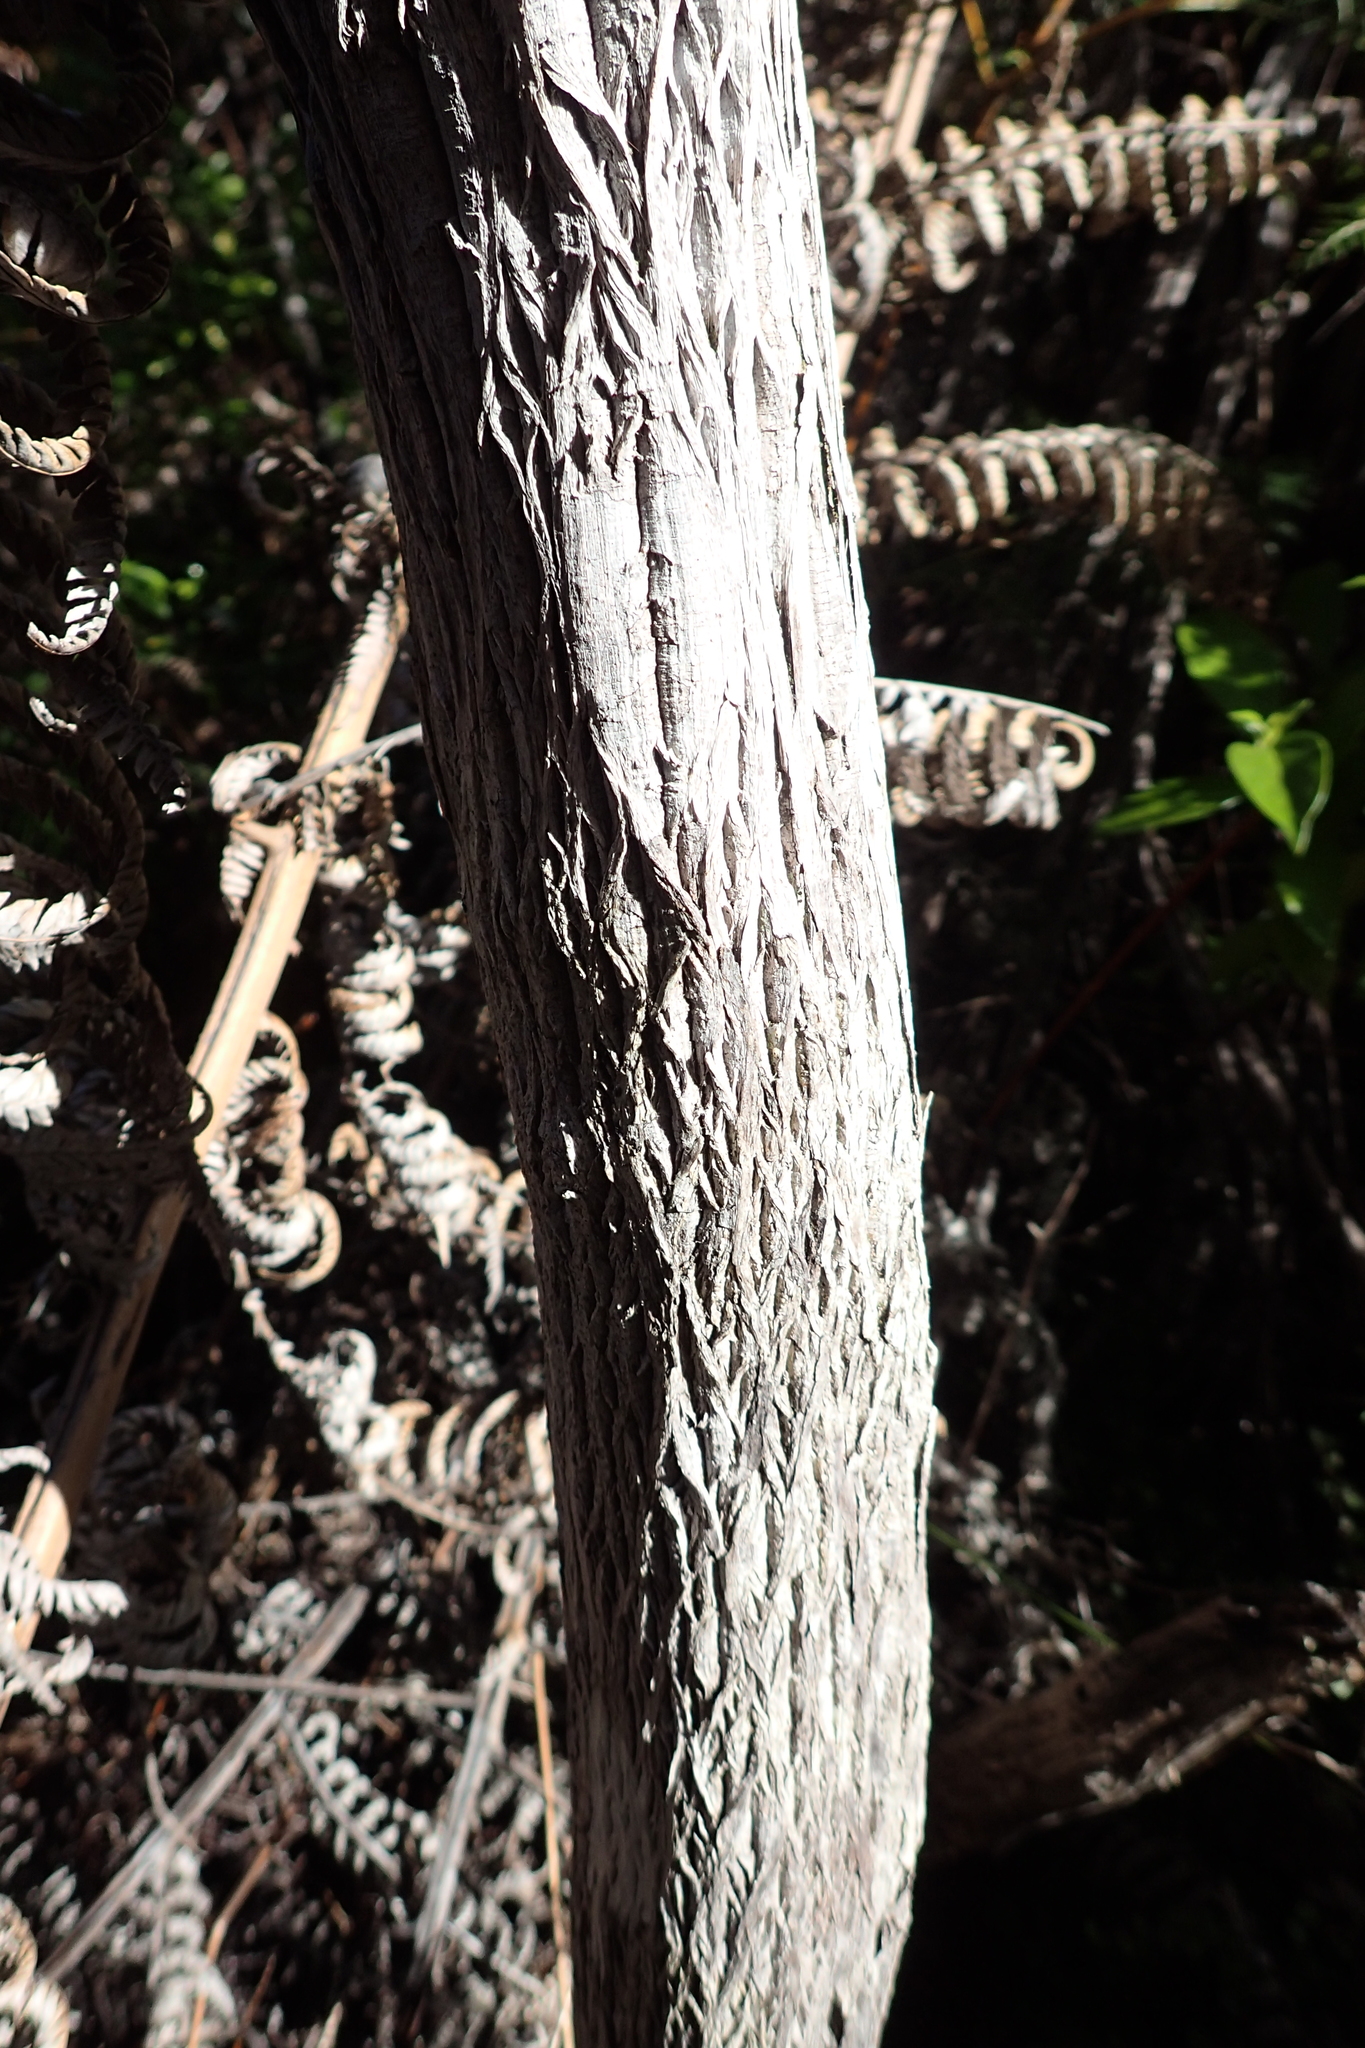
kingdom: Plantae
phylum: Tracheophyta
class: Magnoliopsida
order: Ericales
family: Ericaceae
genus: Dracophyllum
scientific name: Dracophyllum sinclairii
